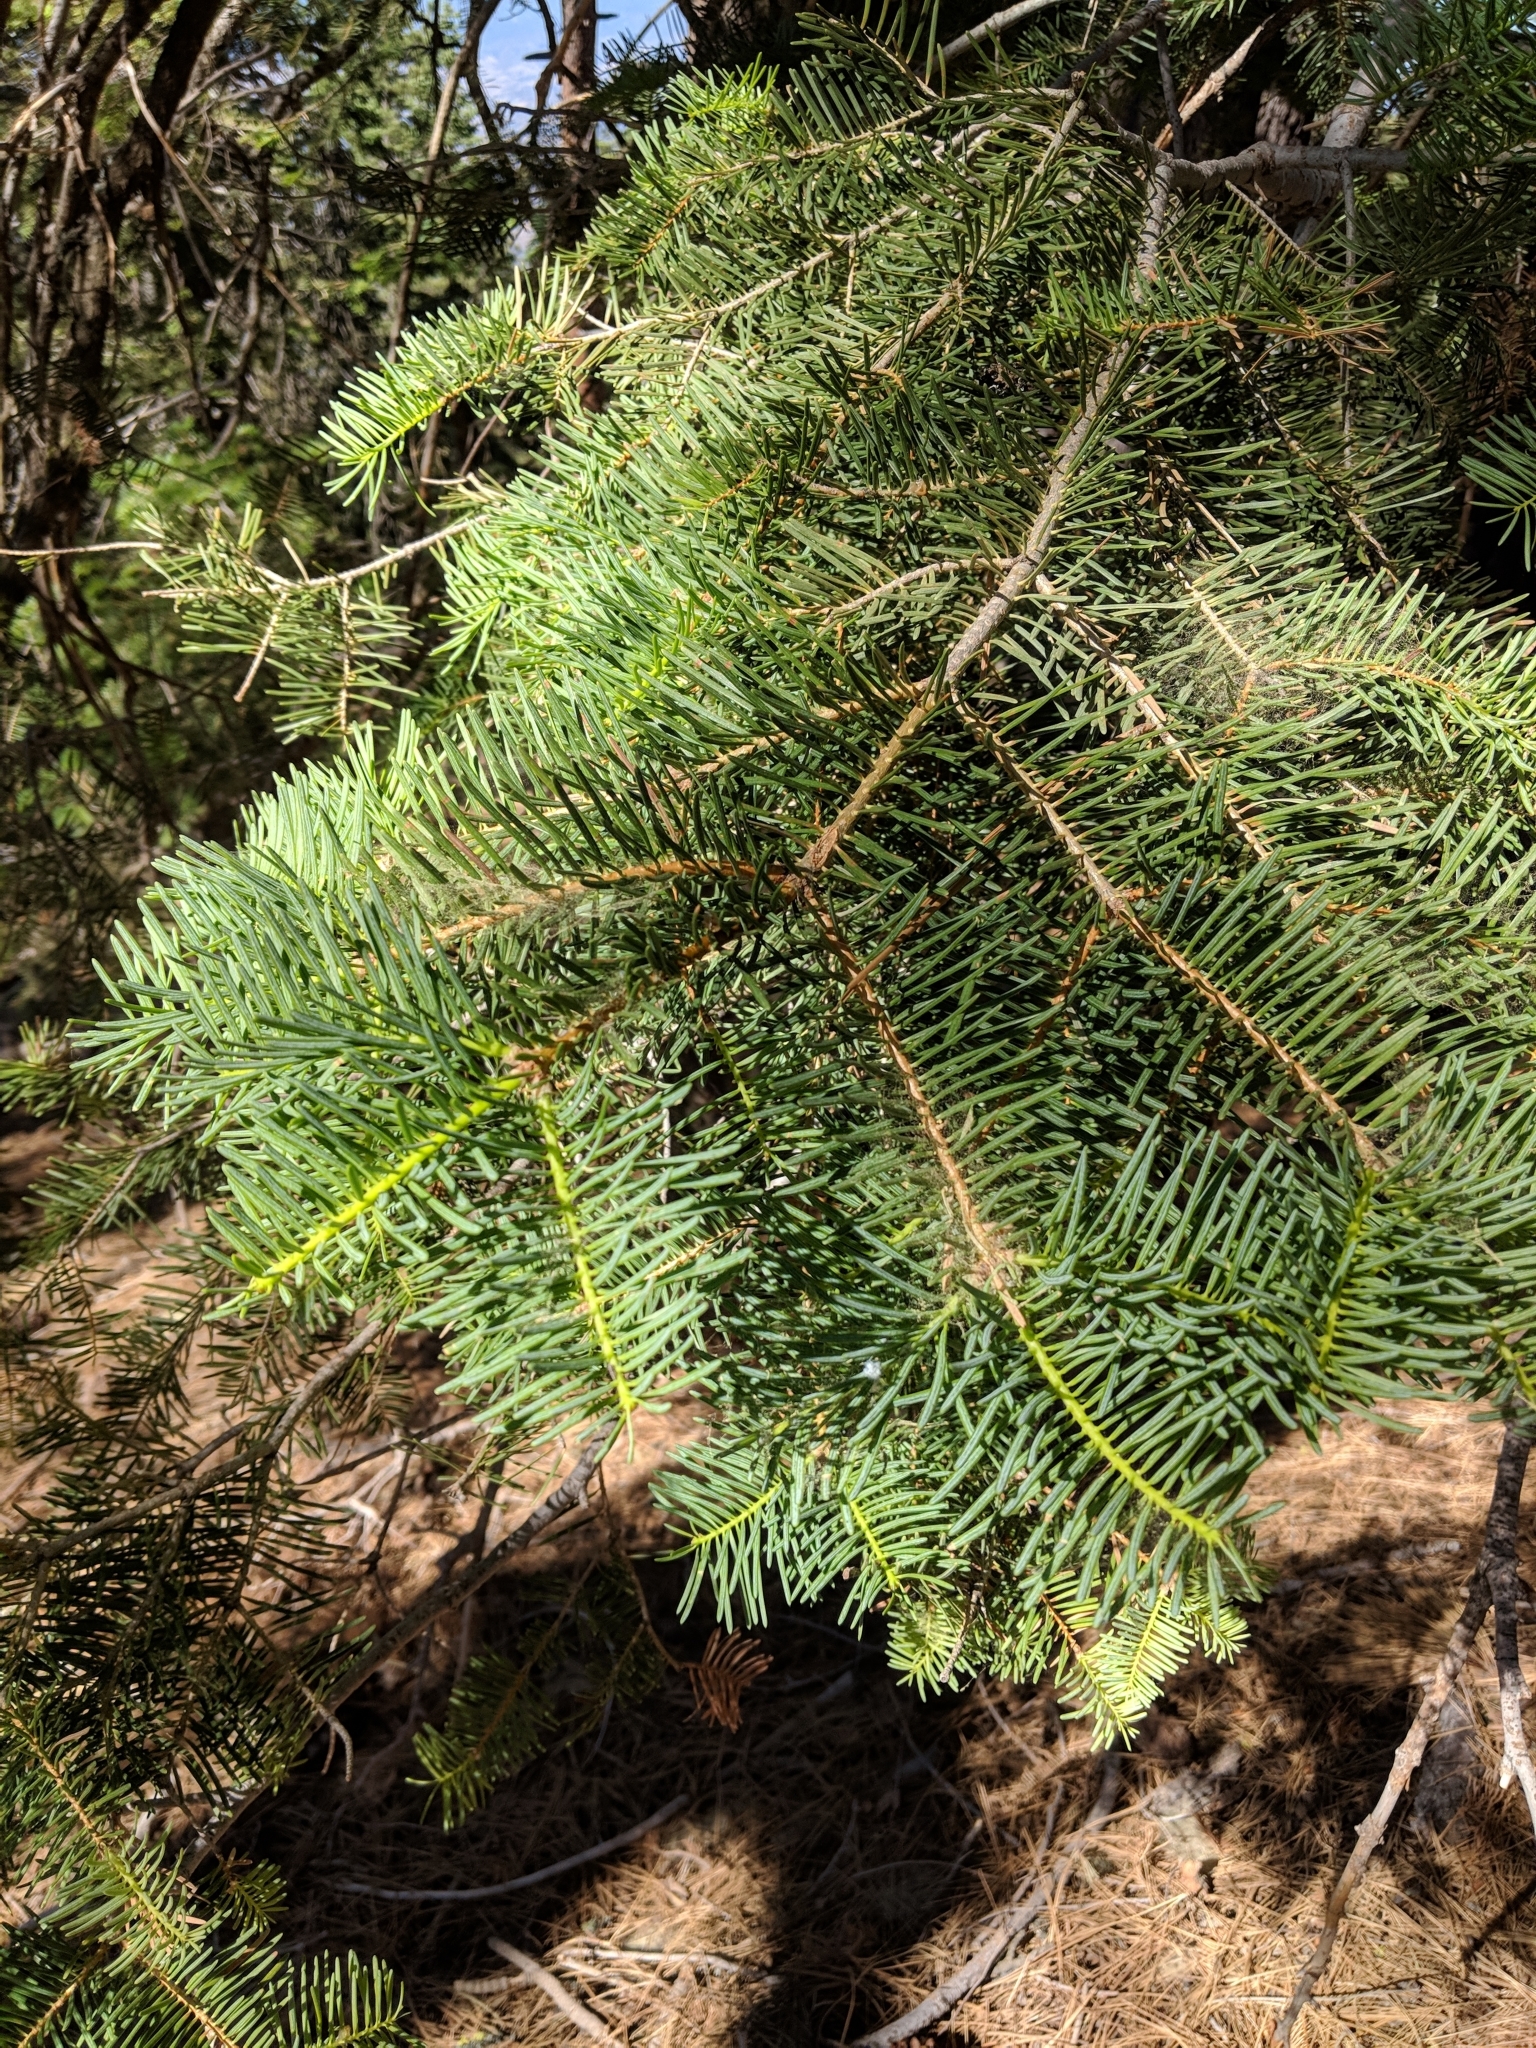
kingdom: Plantae
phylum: Tracheophyta
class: Pinopsida
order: Pinales
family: Pinaceae
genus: Abies
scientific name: Abies concolor
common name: Colorado fir
